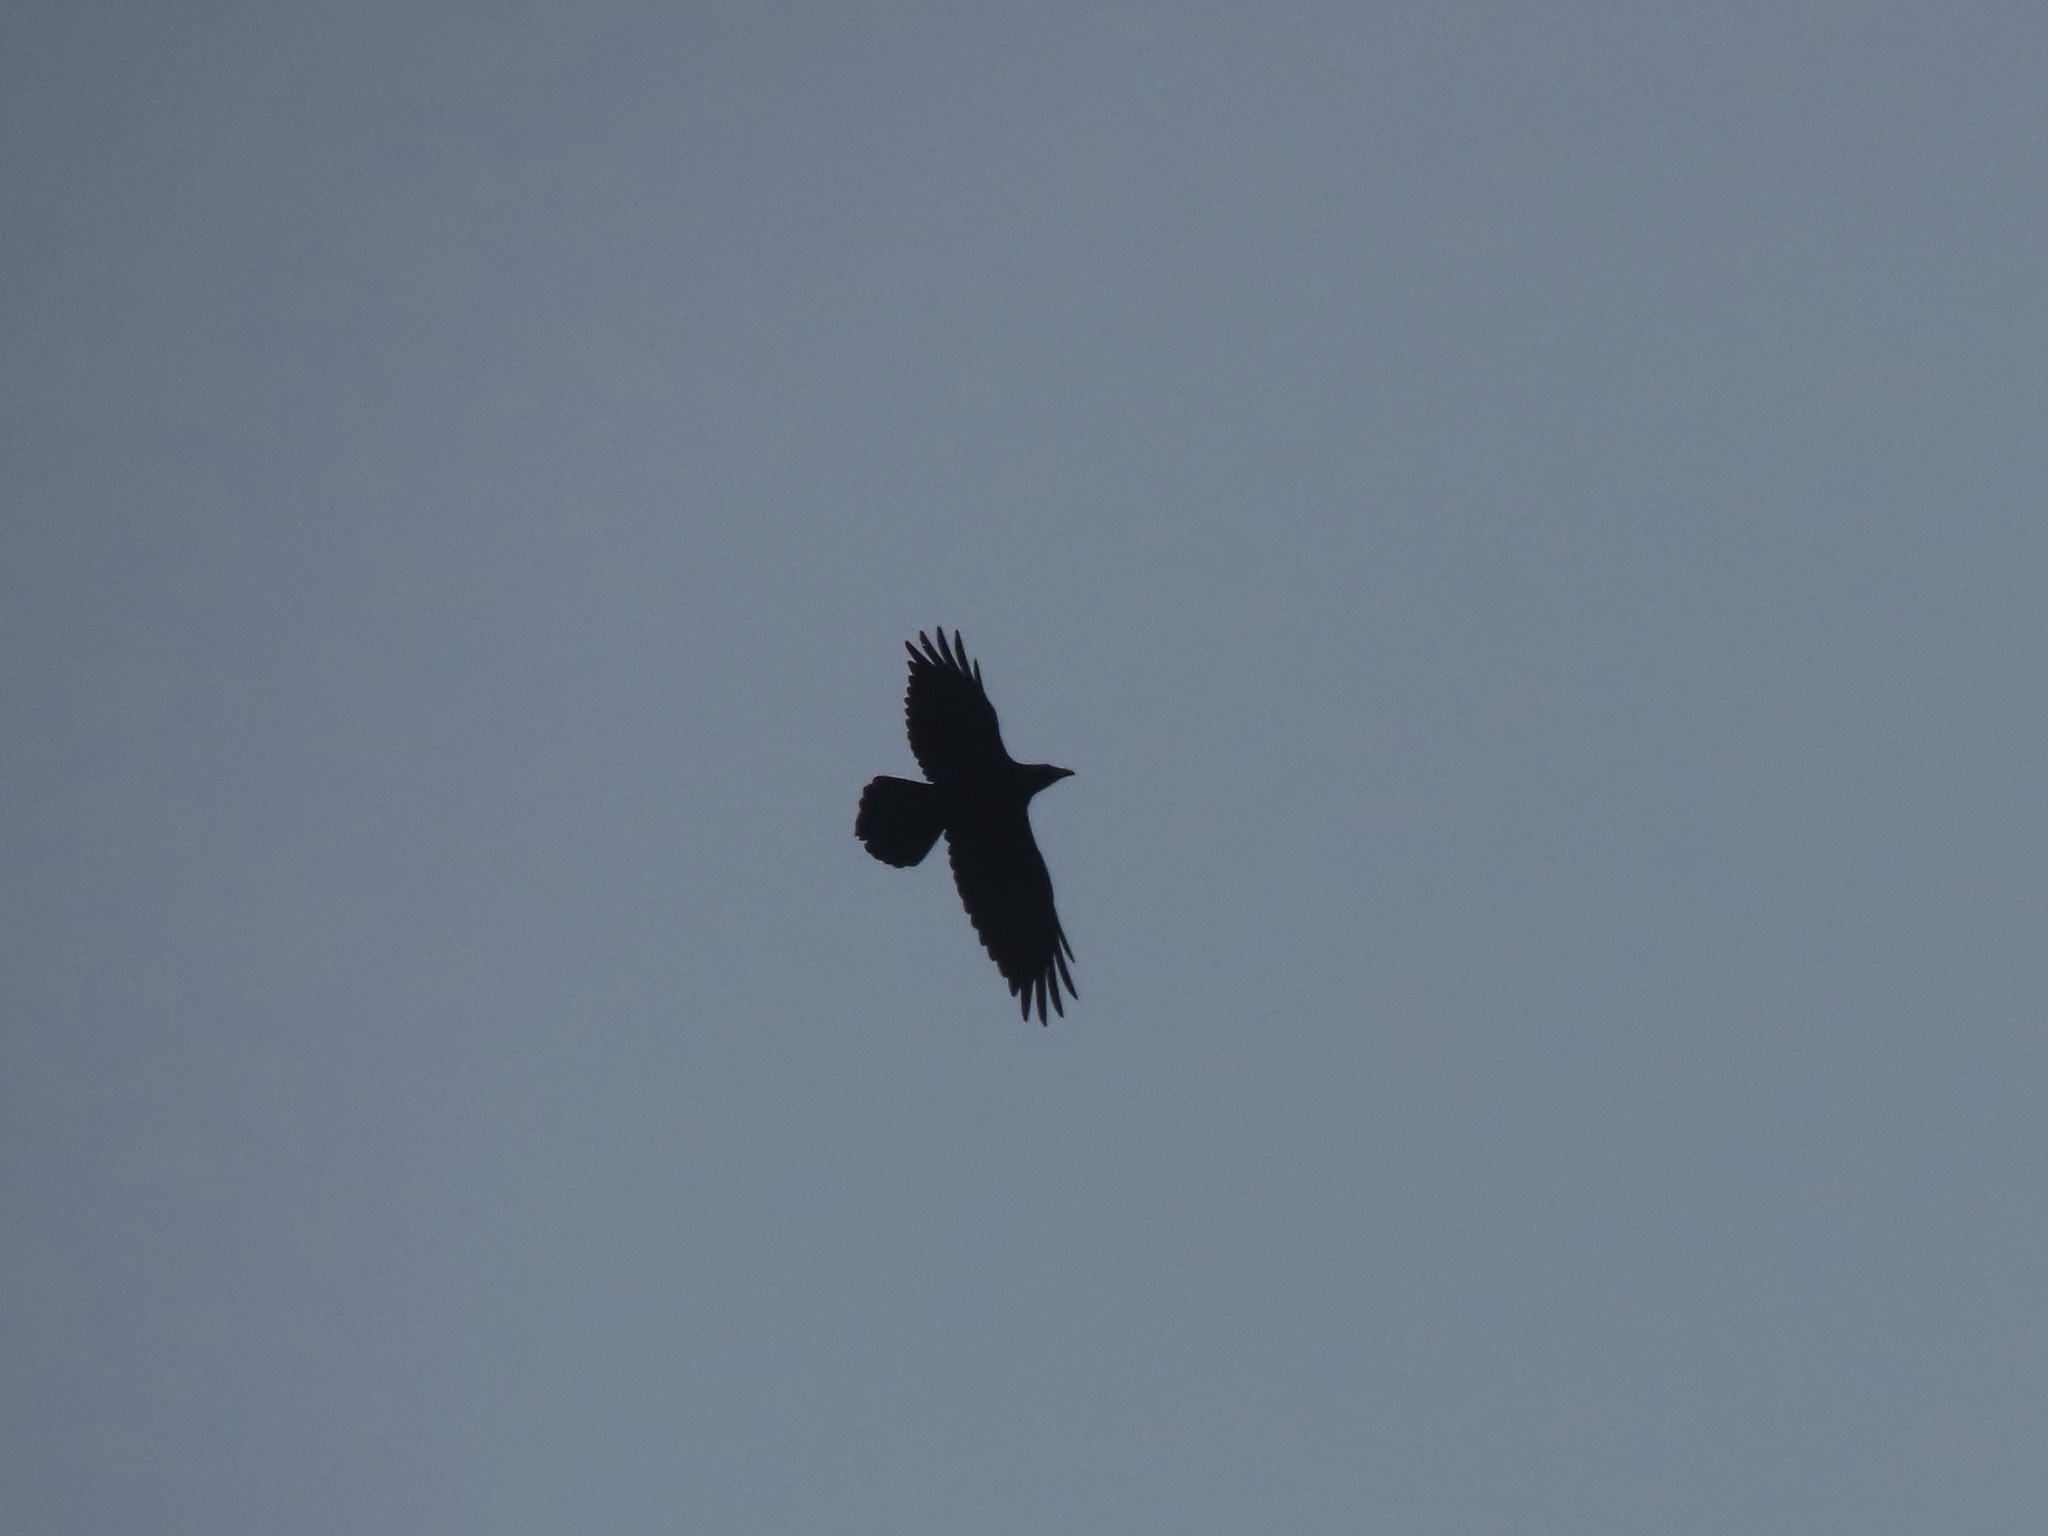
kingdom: Animalia
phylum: Chordata
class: Aves
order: Passeriformes
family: Corvidae
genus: Corvus
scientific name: Corvus corax
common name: Common raven
